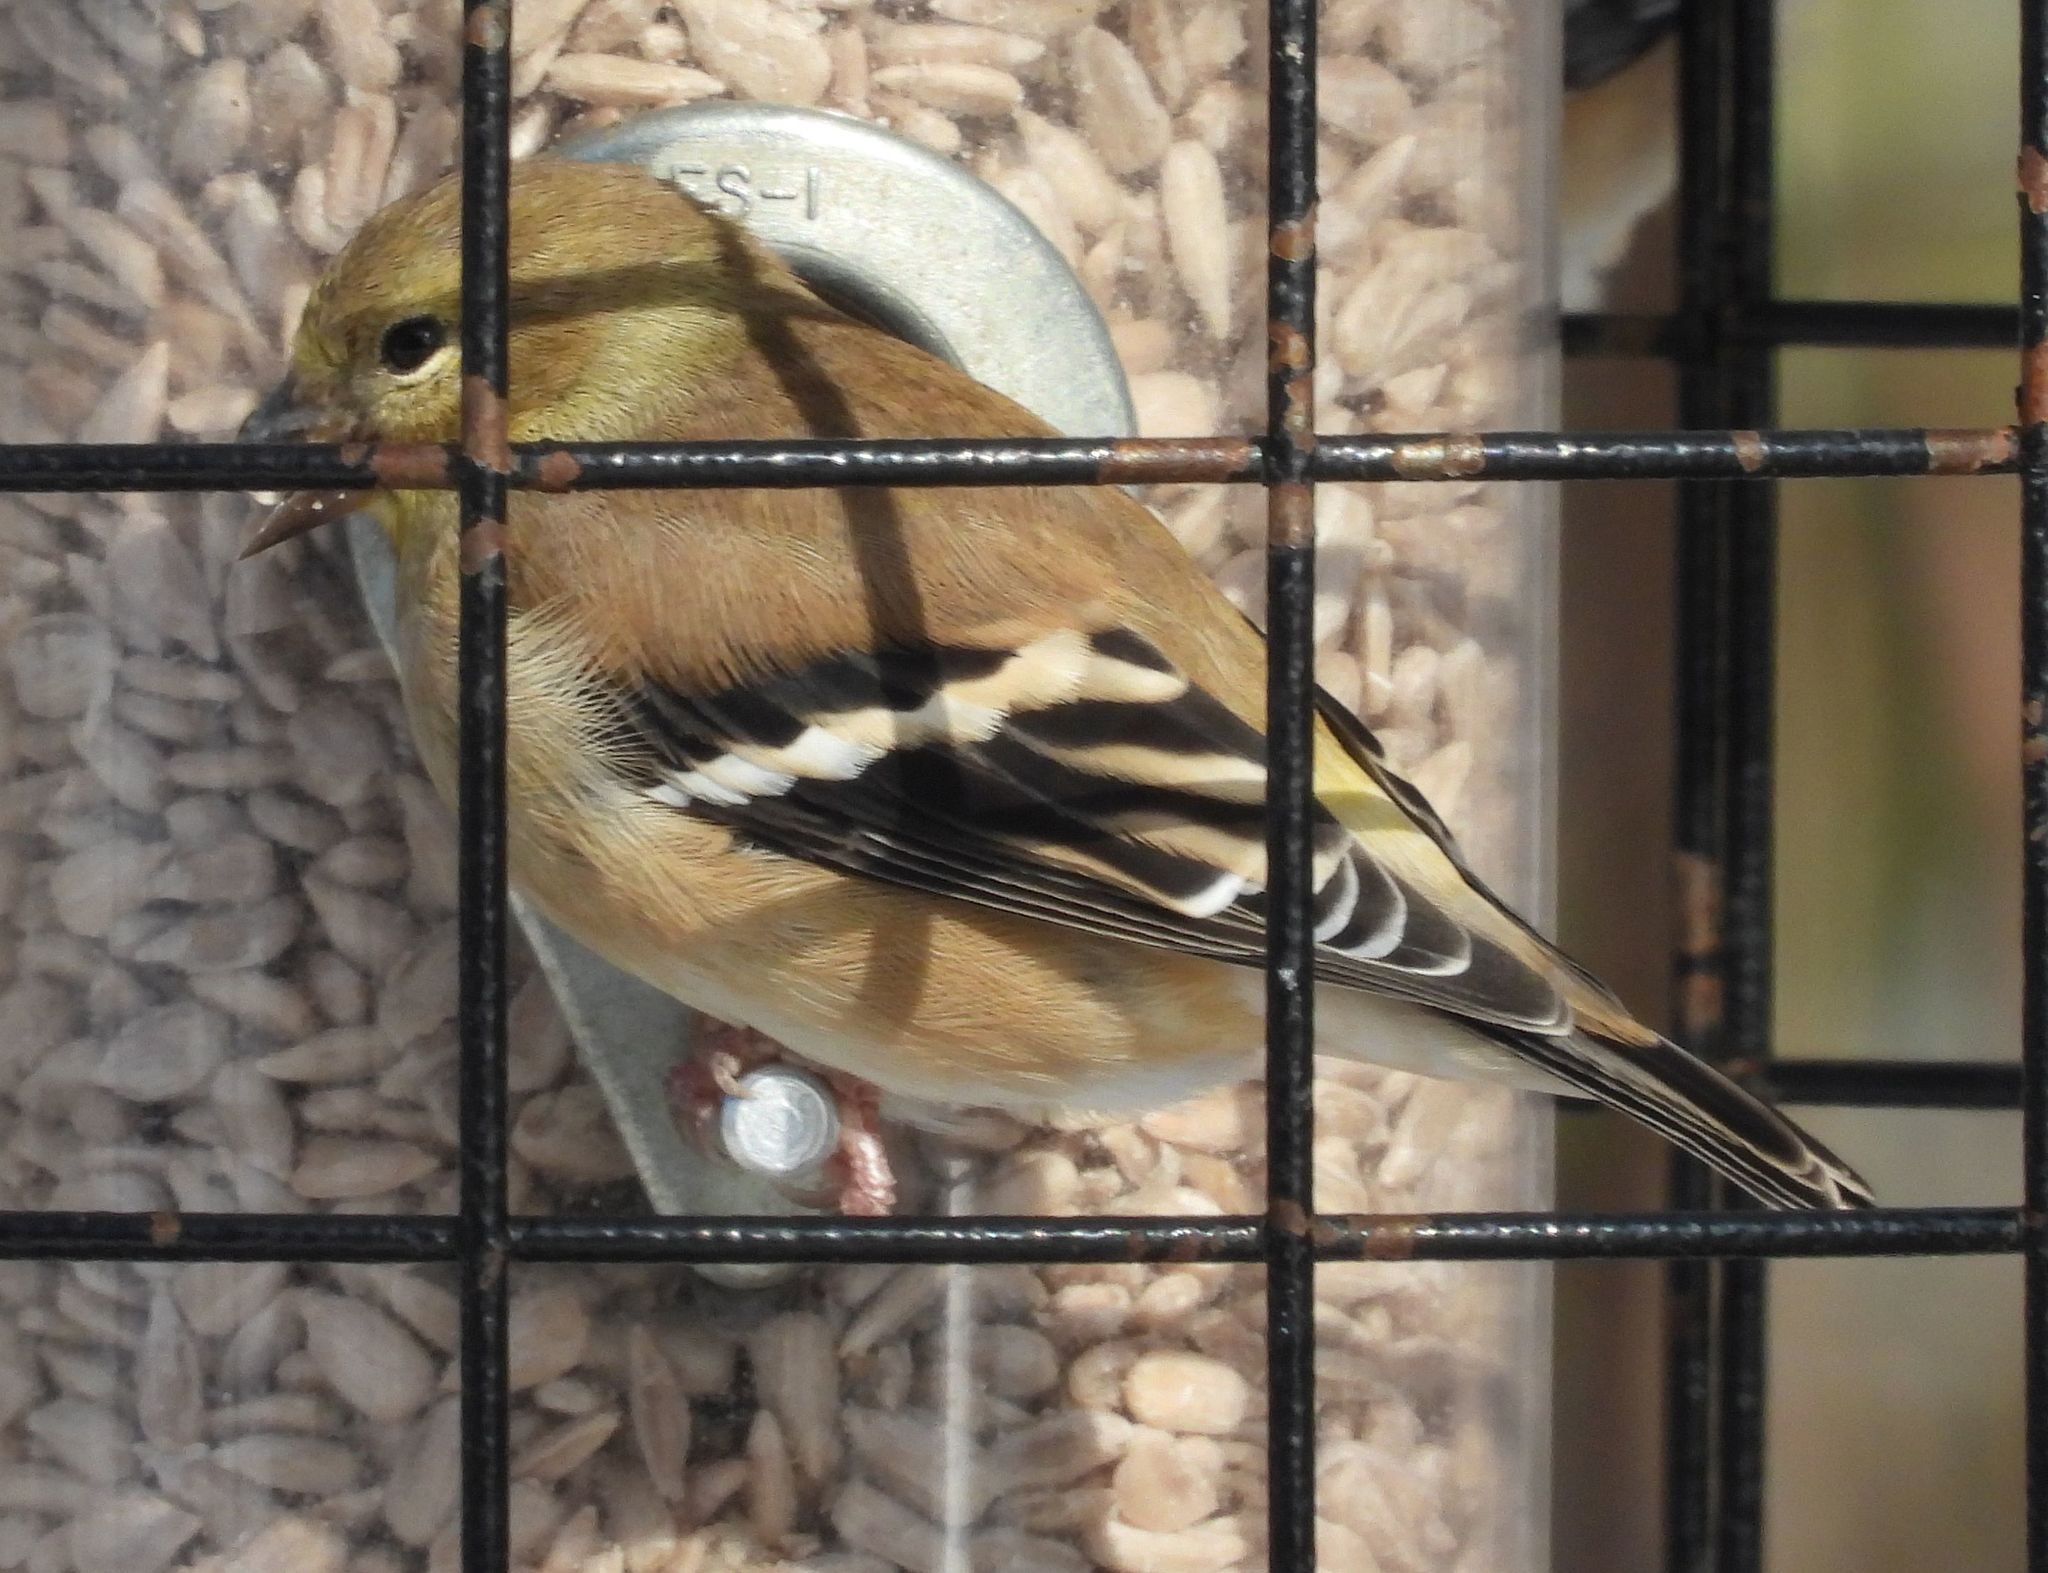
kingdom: Animalia
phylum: Chordata
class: Aves
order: Passeriformes
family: Fringillidae
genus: Spinus
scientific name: Spinus tristis
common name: American goldfinch
